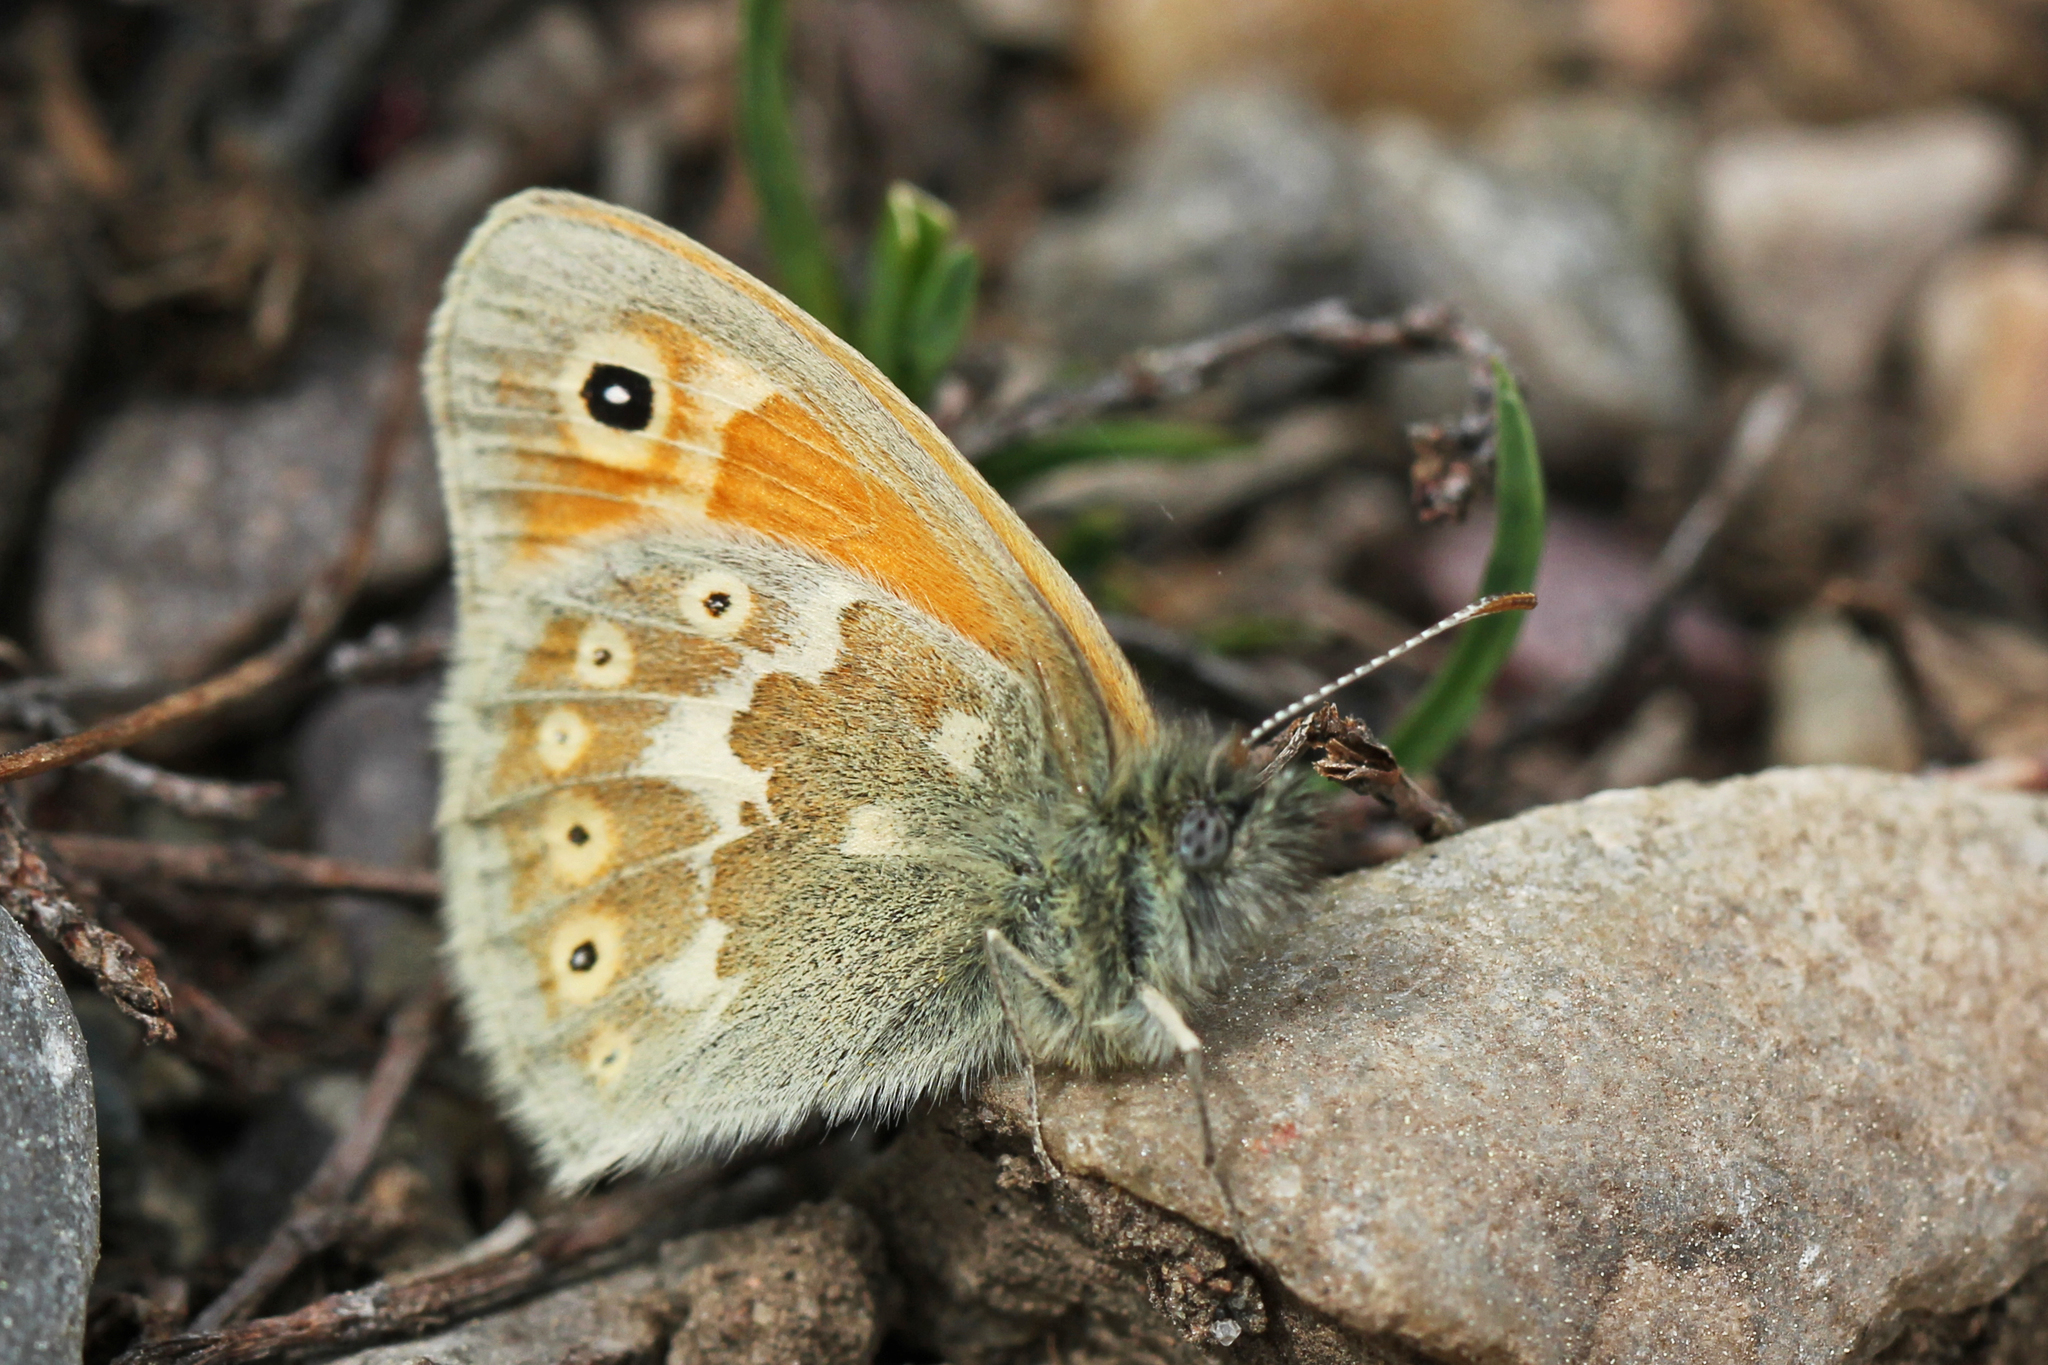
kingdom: Animalia
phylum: Arthropoda
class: Insecta
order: Lepidoptera
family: Nymphalidae
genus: Coenonympha
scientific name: Coenonympha california
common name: Common ringlet
